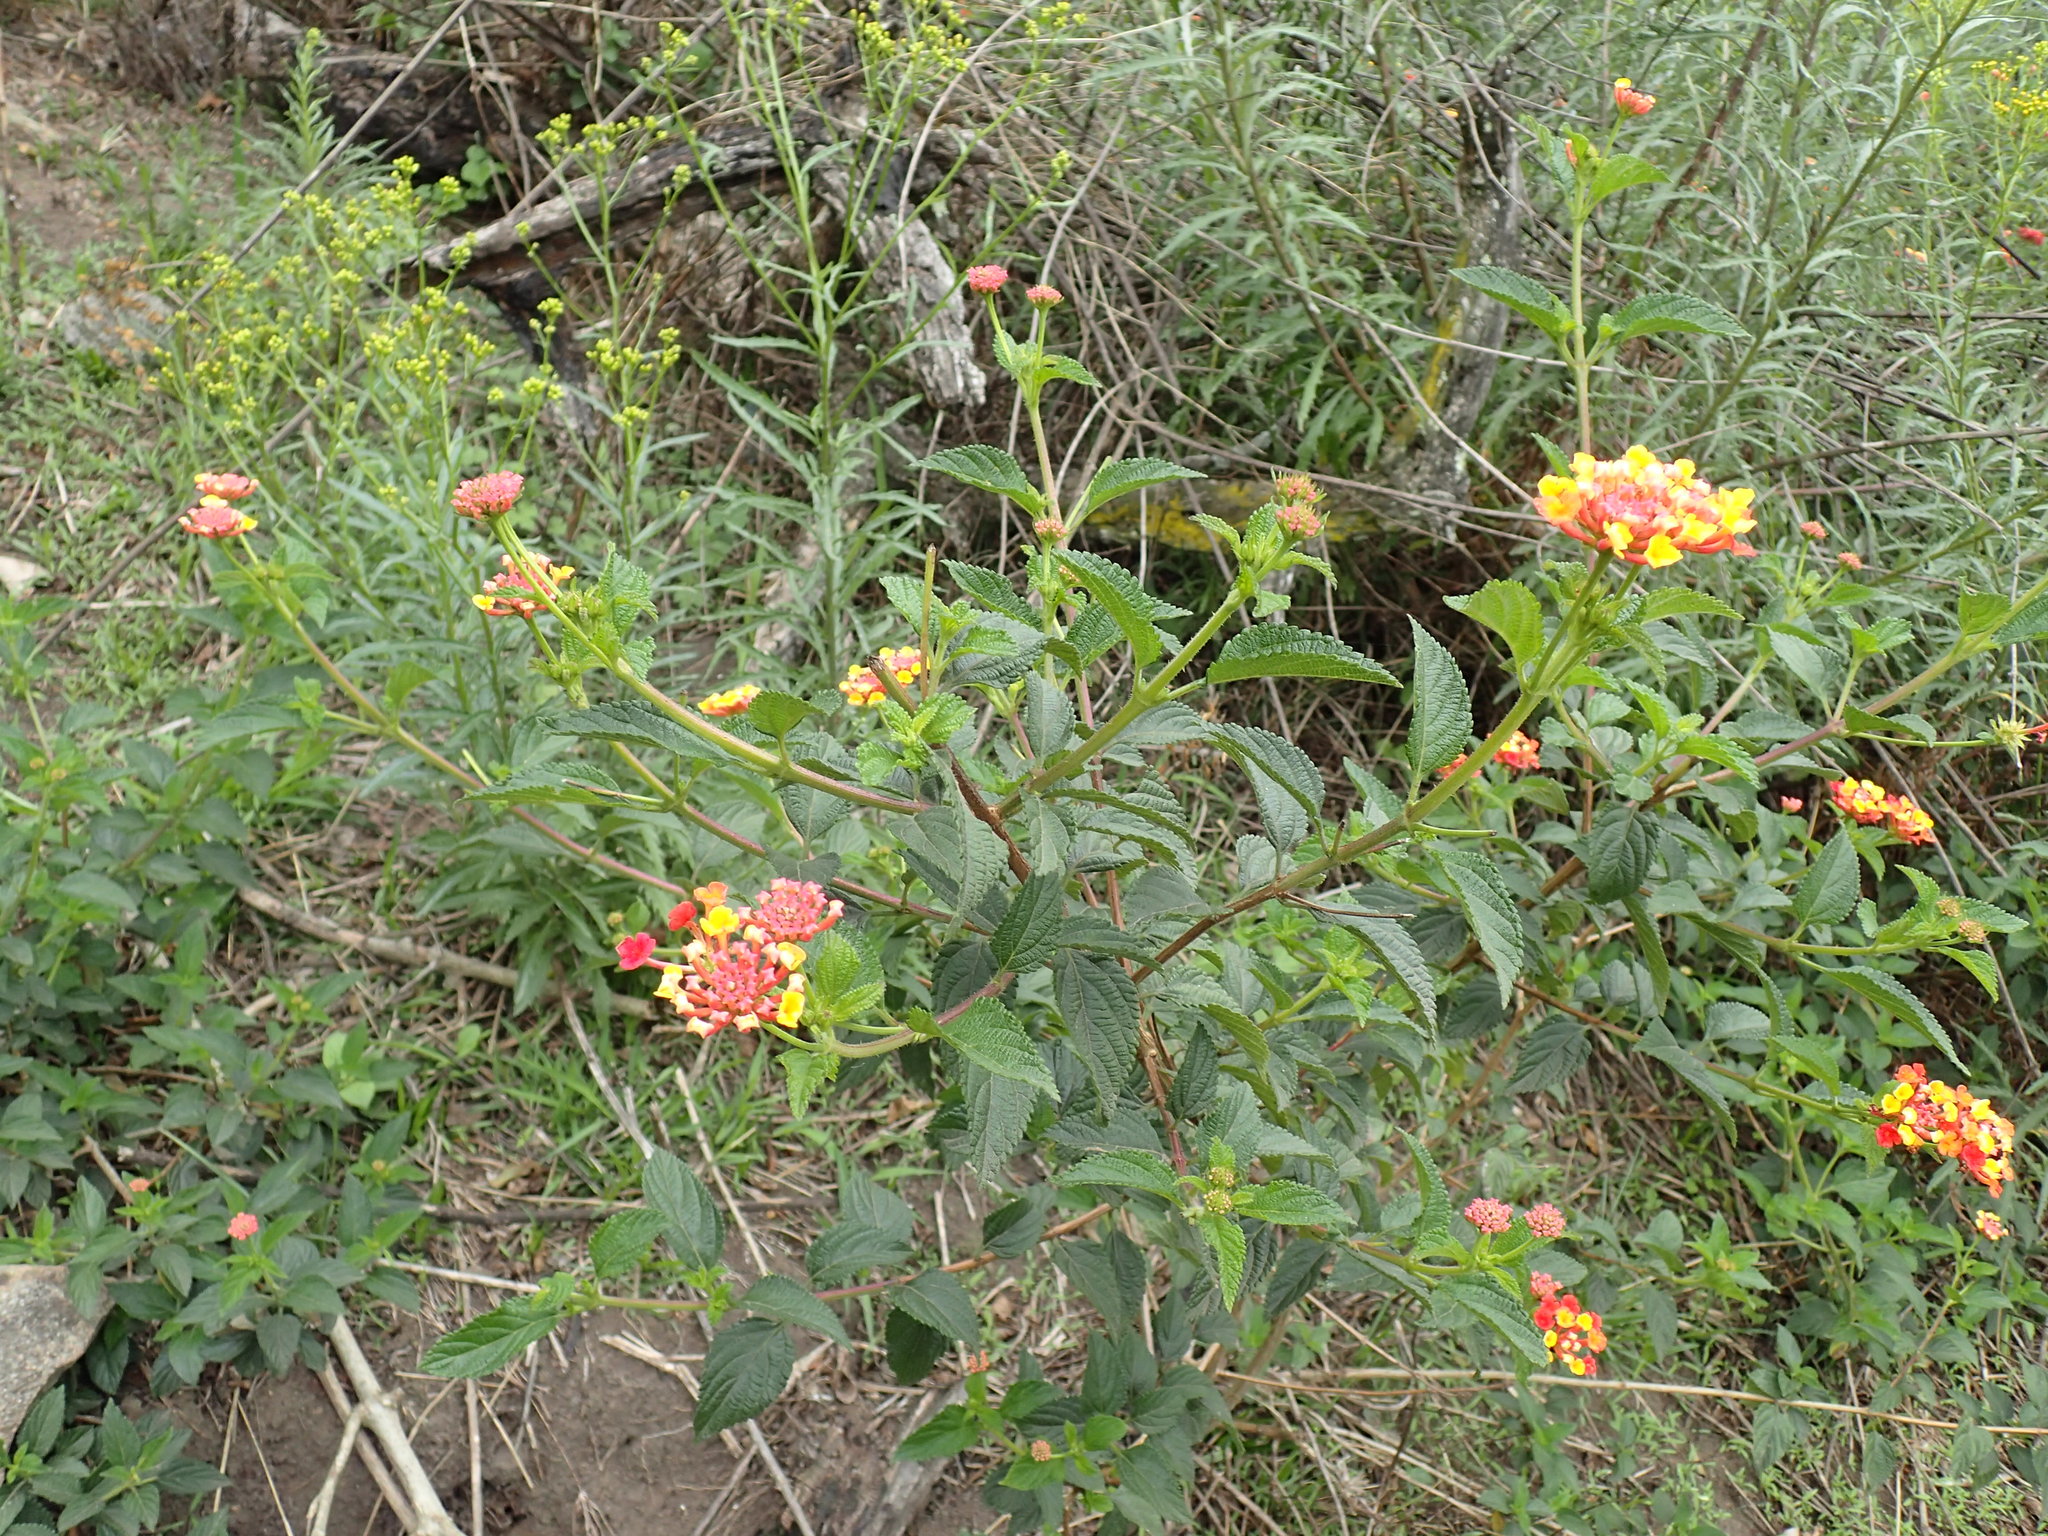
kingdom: Plantae
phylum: Tracheophyta
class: Magnoliopsida
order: Lamiales
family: Verbenaceae
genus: Lantana
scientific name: Lantana camara
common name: Lantana
